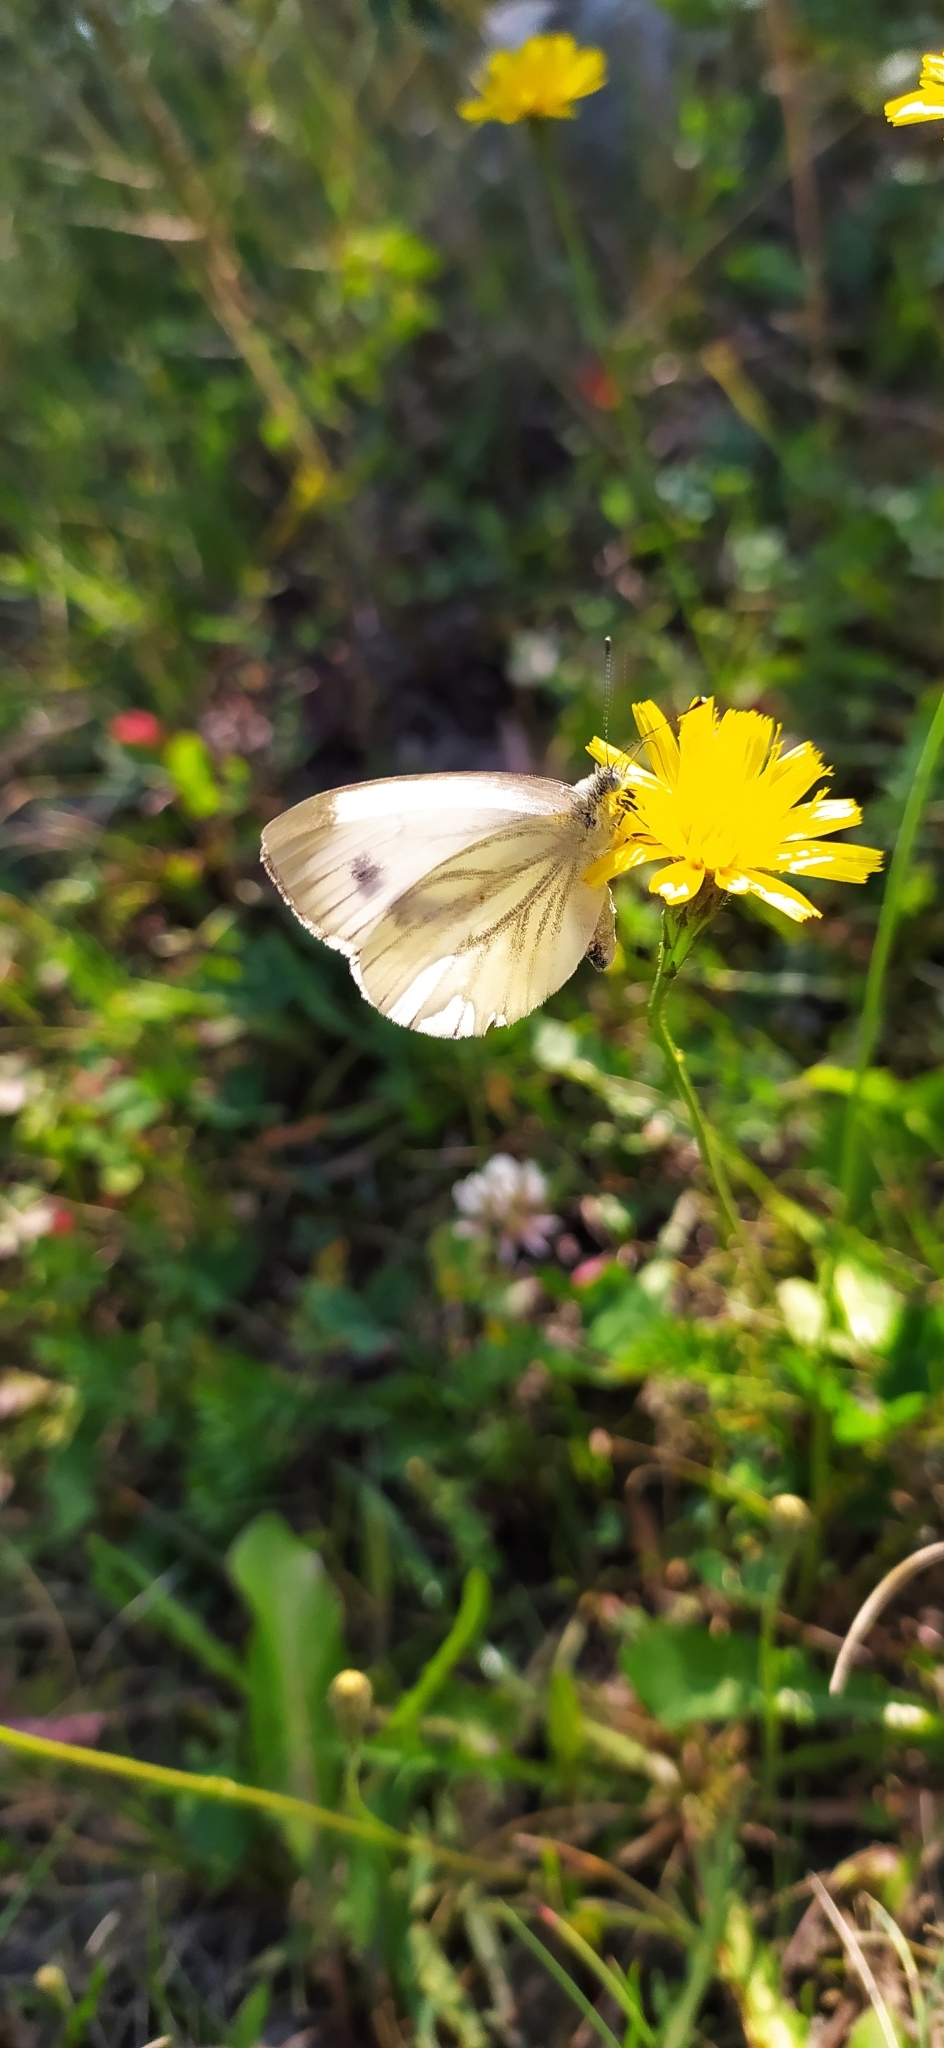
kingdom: Animalia
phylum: Arthropoda
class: Insecta
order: Lepidoptera
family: Pieridae
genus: Pieris
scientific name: Pieris napi
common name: Green-veined white
